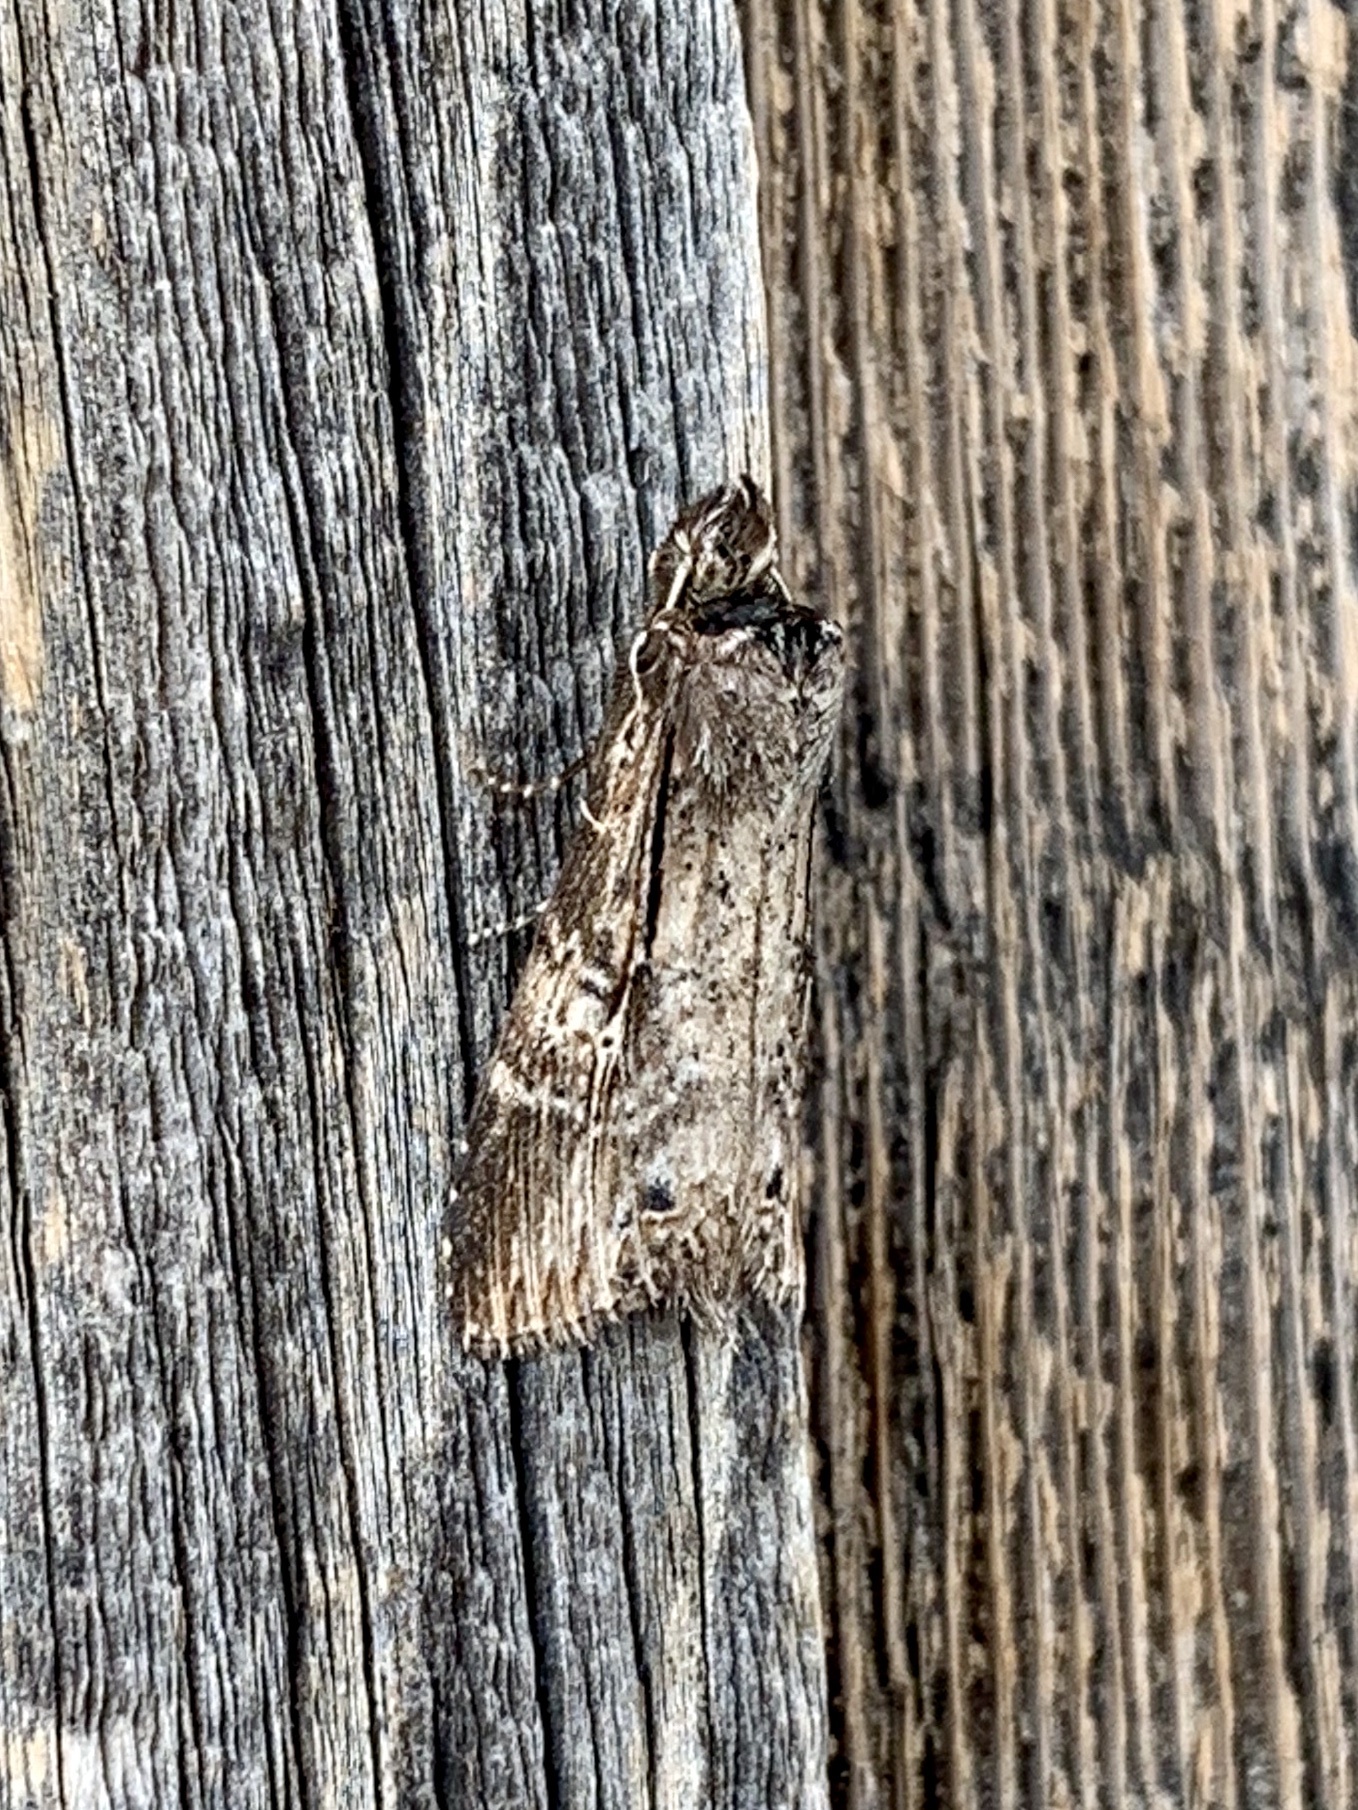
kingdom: Animalia
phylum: Arthropoda
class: Insecta
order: Lepidoptera
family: Notodontidae
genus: Dasylophia
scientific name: Dasylophia seriata
